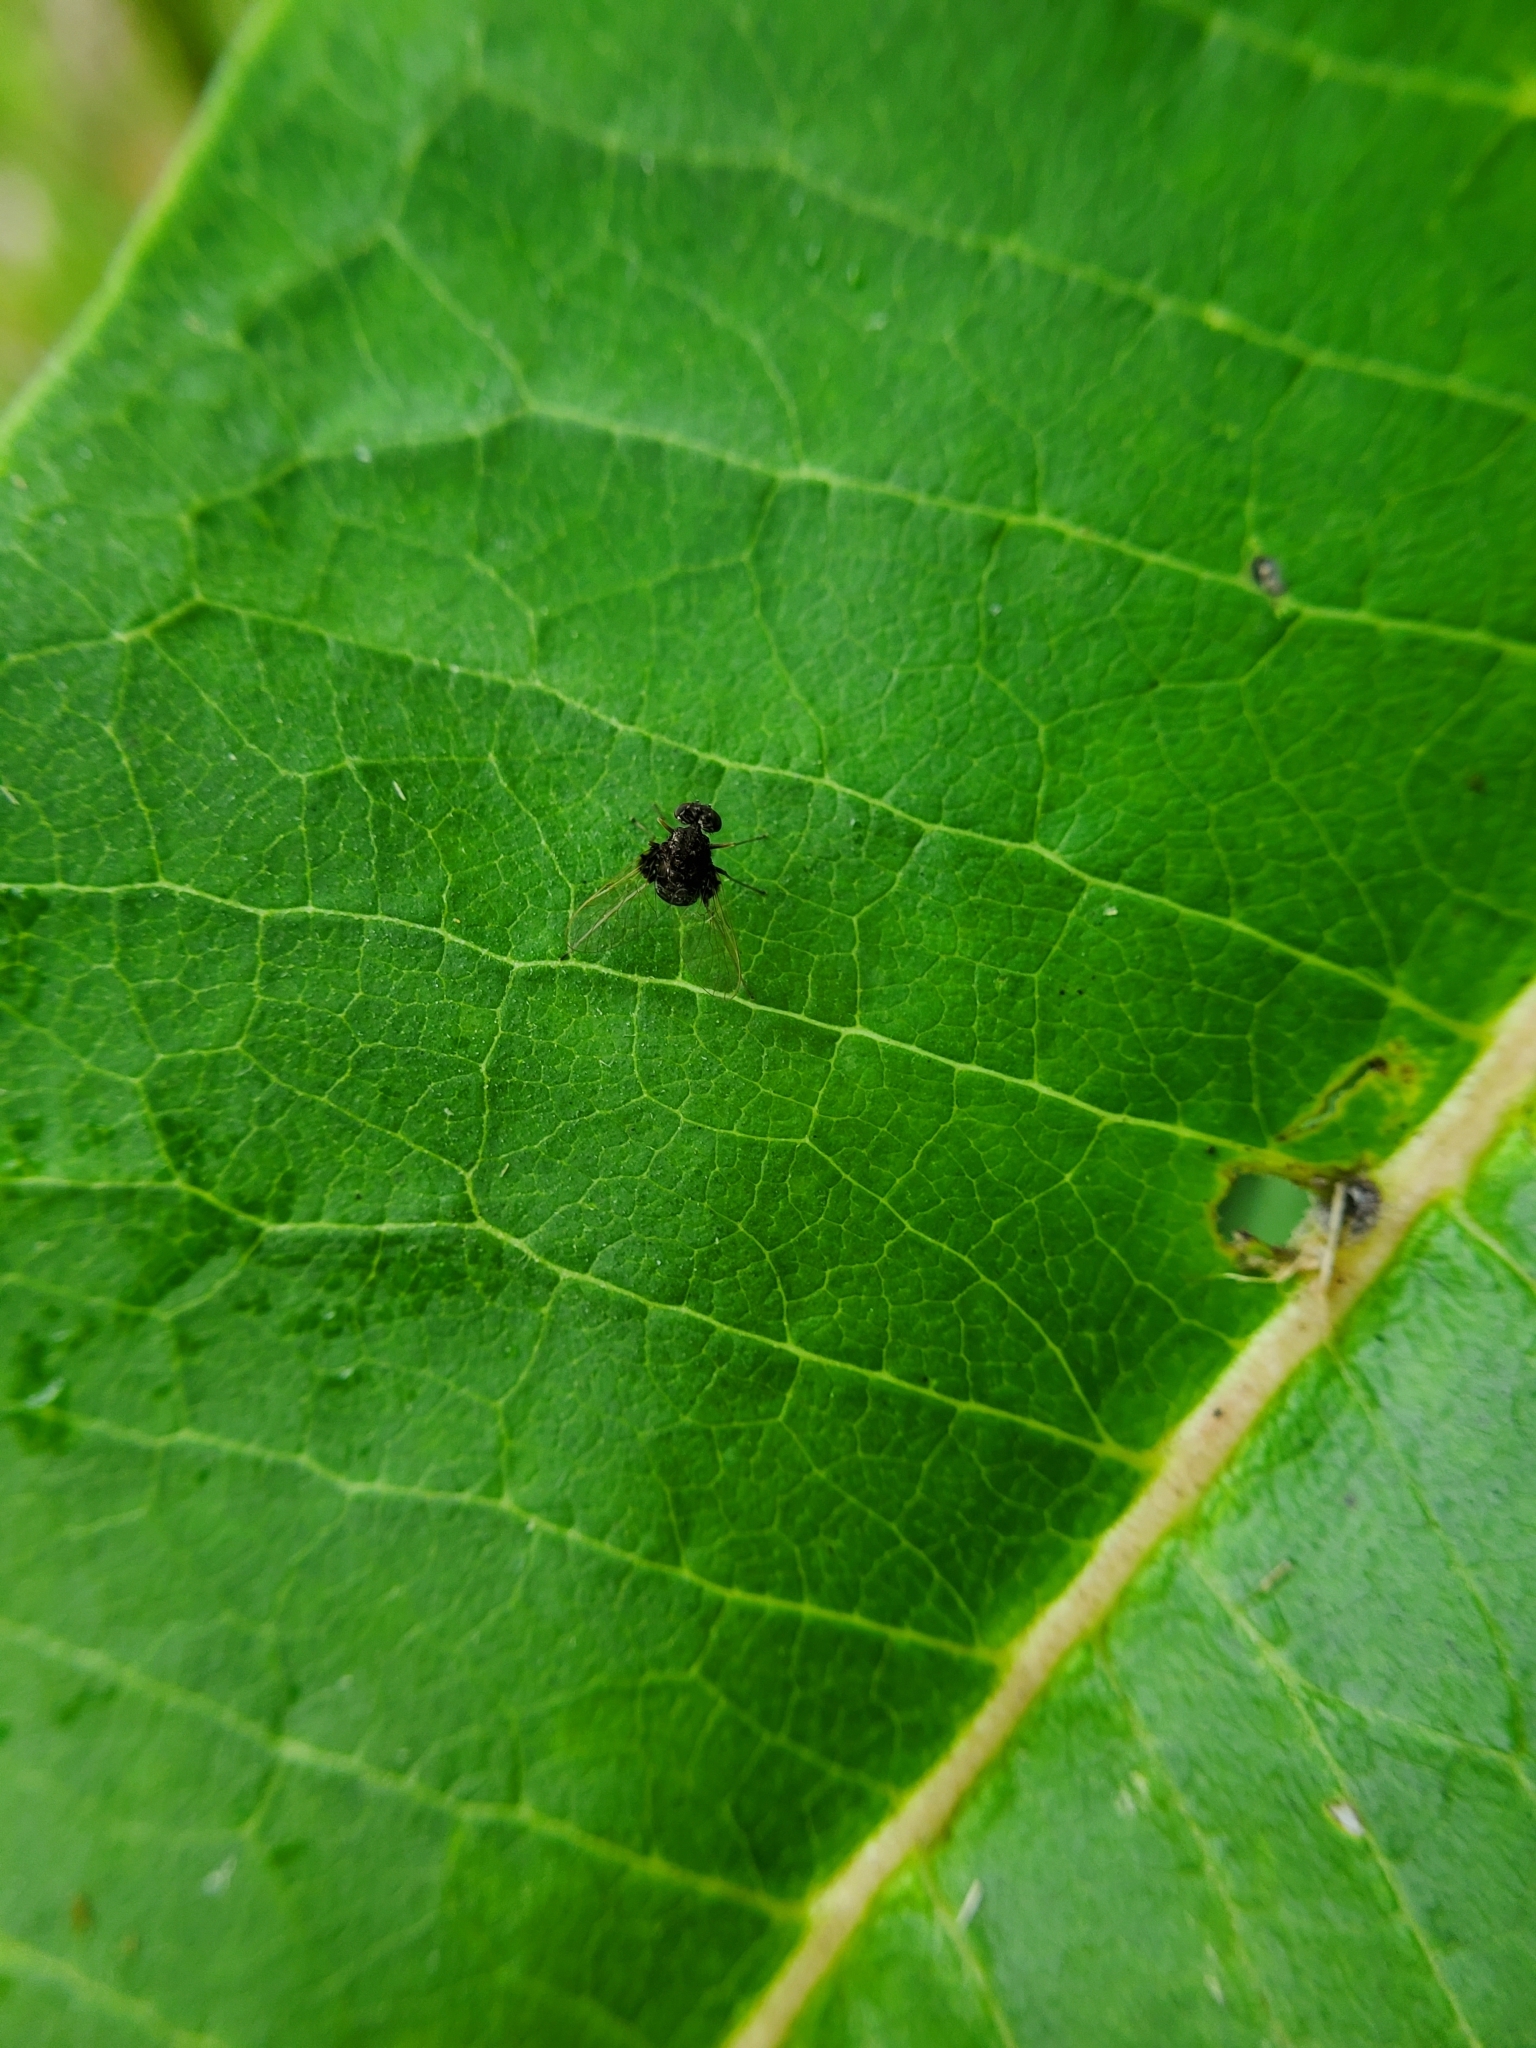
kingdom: Animalia
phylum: Arthropoda
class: Insecta
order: Diptera
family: Rhagionidae
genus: Chrysopilus
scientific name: Chrysopilus basilaris
